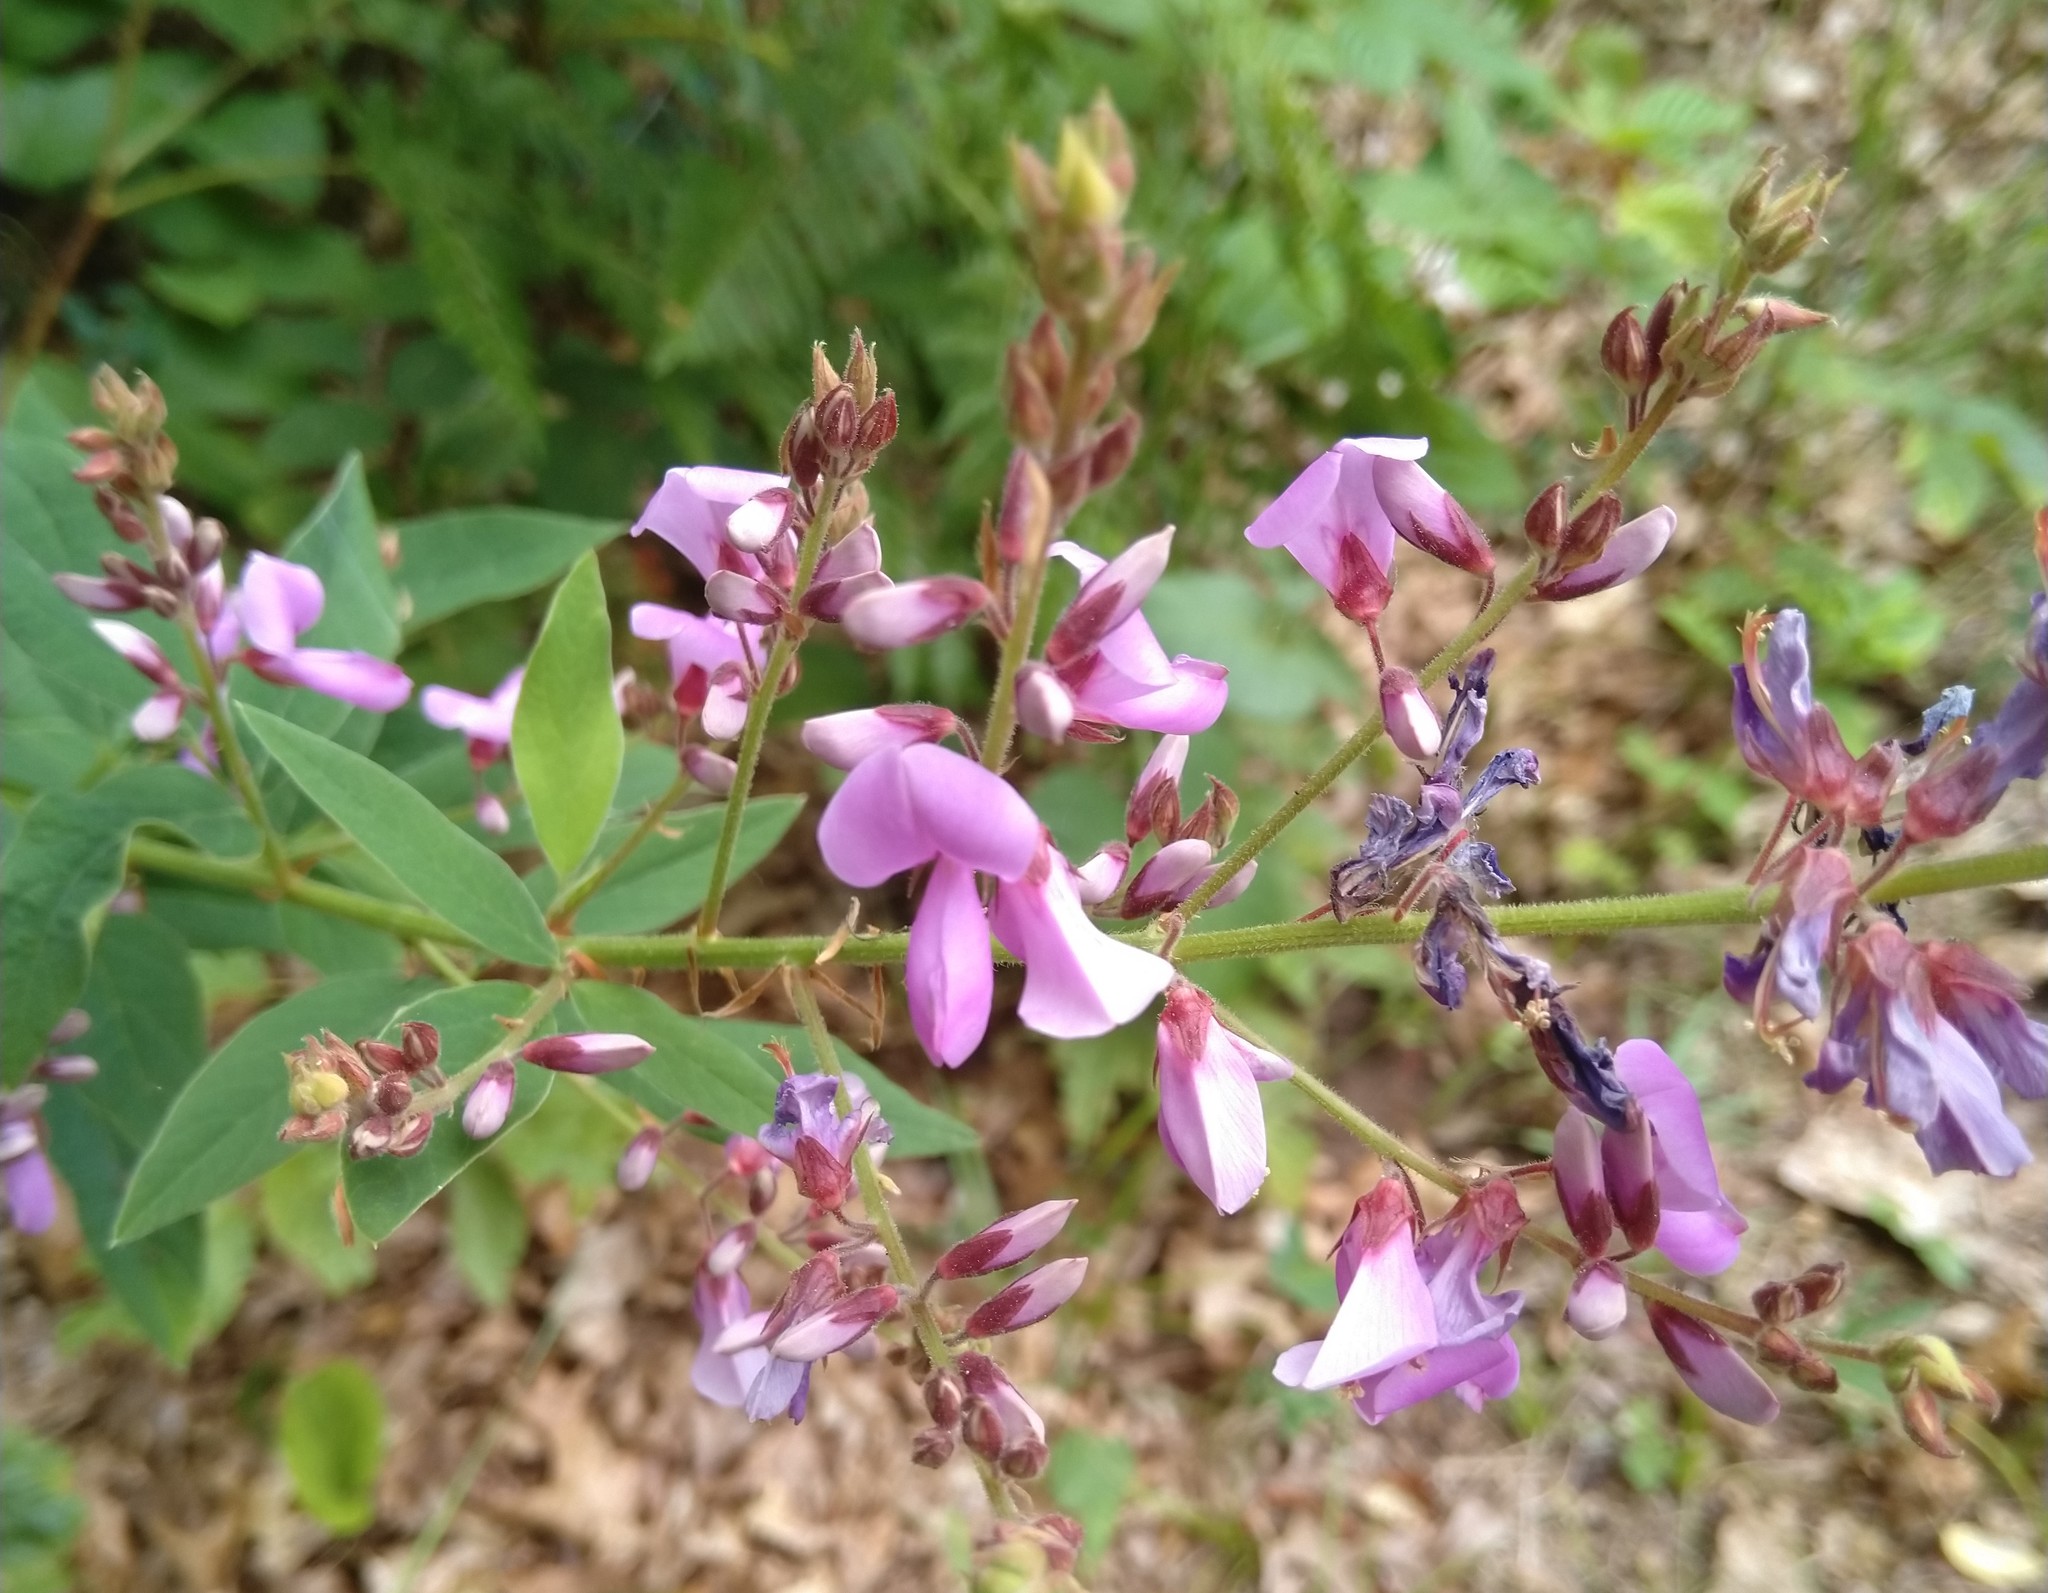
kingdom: Plantae
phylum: Tracheophyta
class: Magnoliopsida
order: Fabales
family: Fabaceae
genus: Desmodium
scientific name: Desmodium canadense
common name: Canada tick-trefoil
